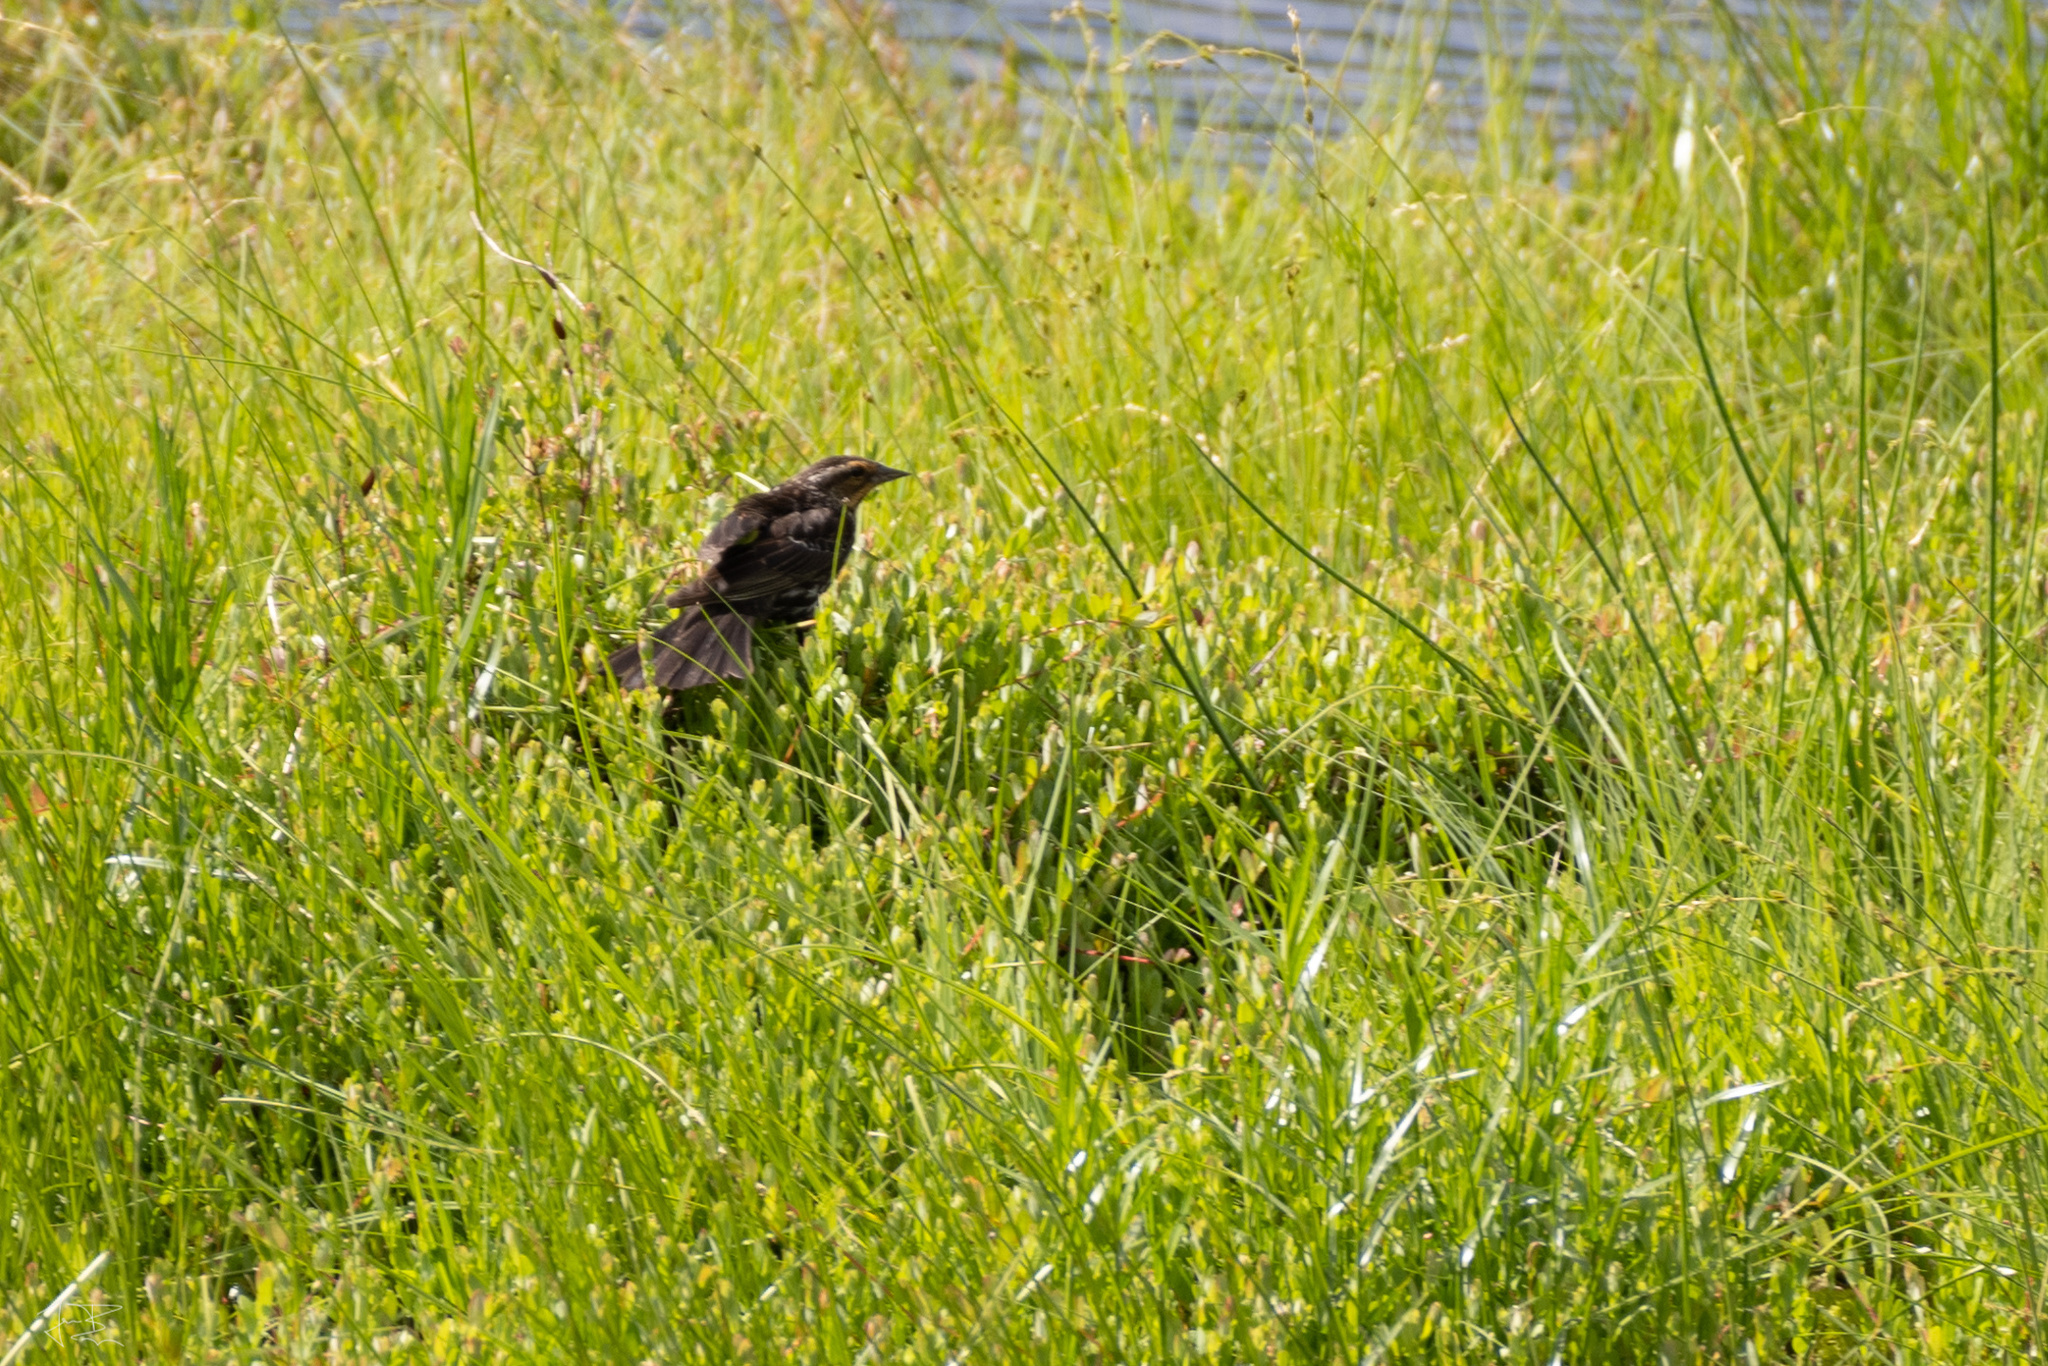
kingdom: Animalia
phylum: Chordata
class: Aves
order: Passeriformes
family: Icteridae
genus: Agelaius
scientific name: Agelaius phoeniceus
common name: Red-winged blackbird
